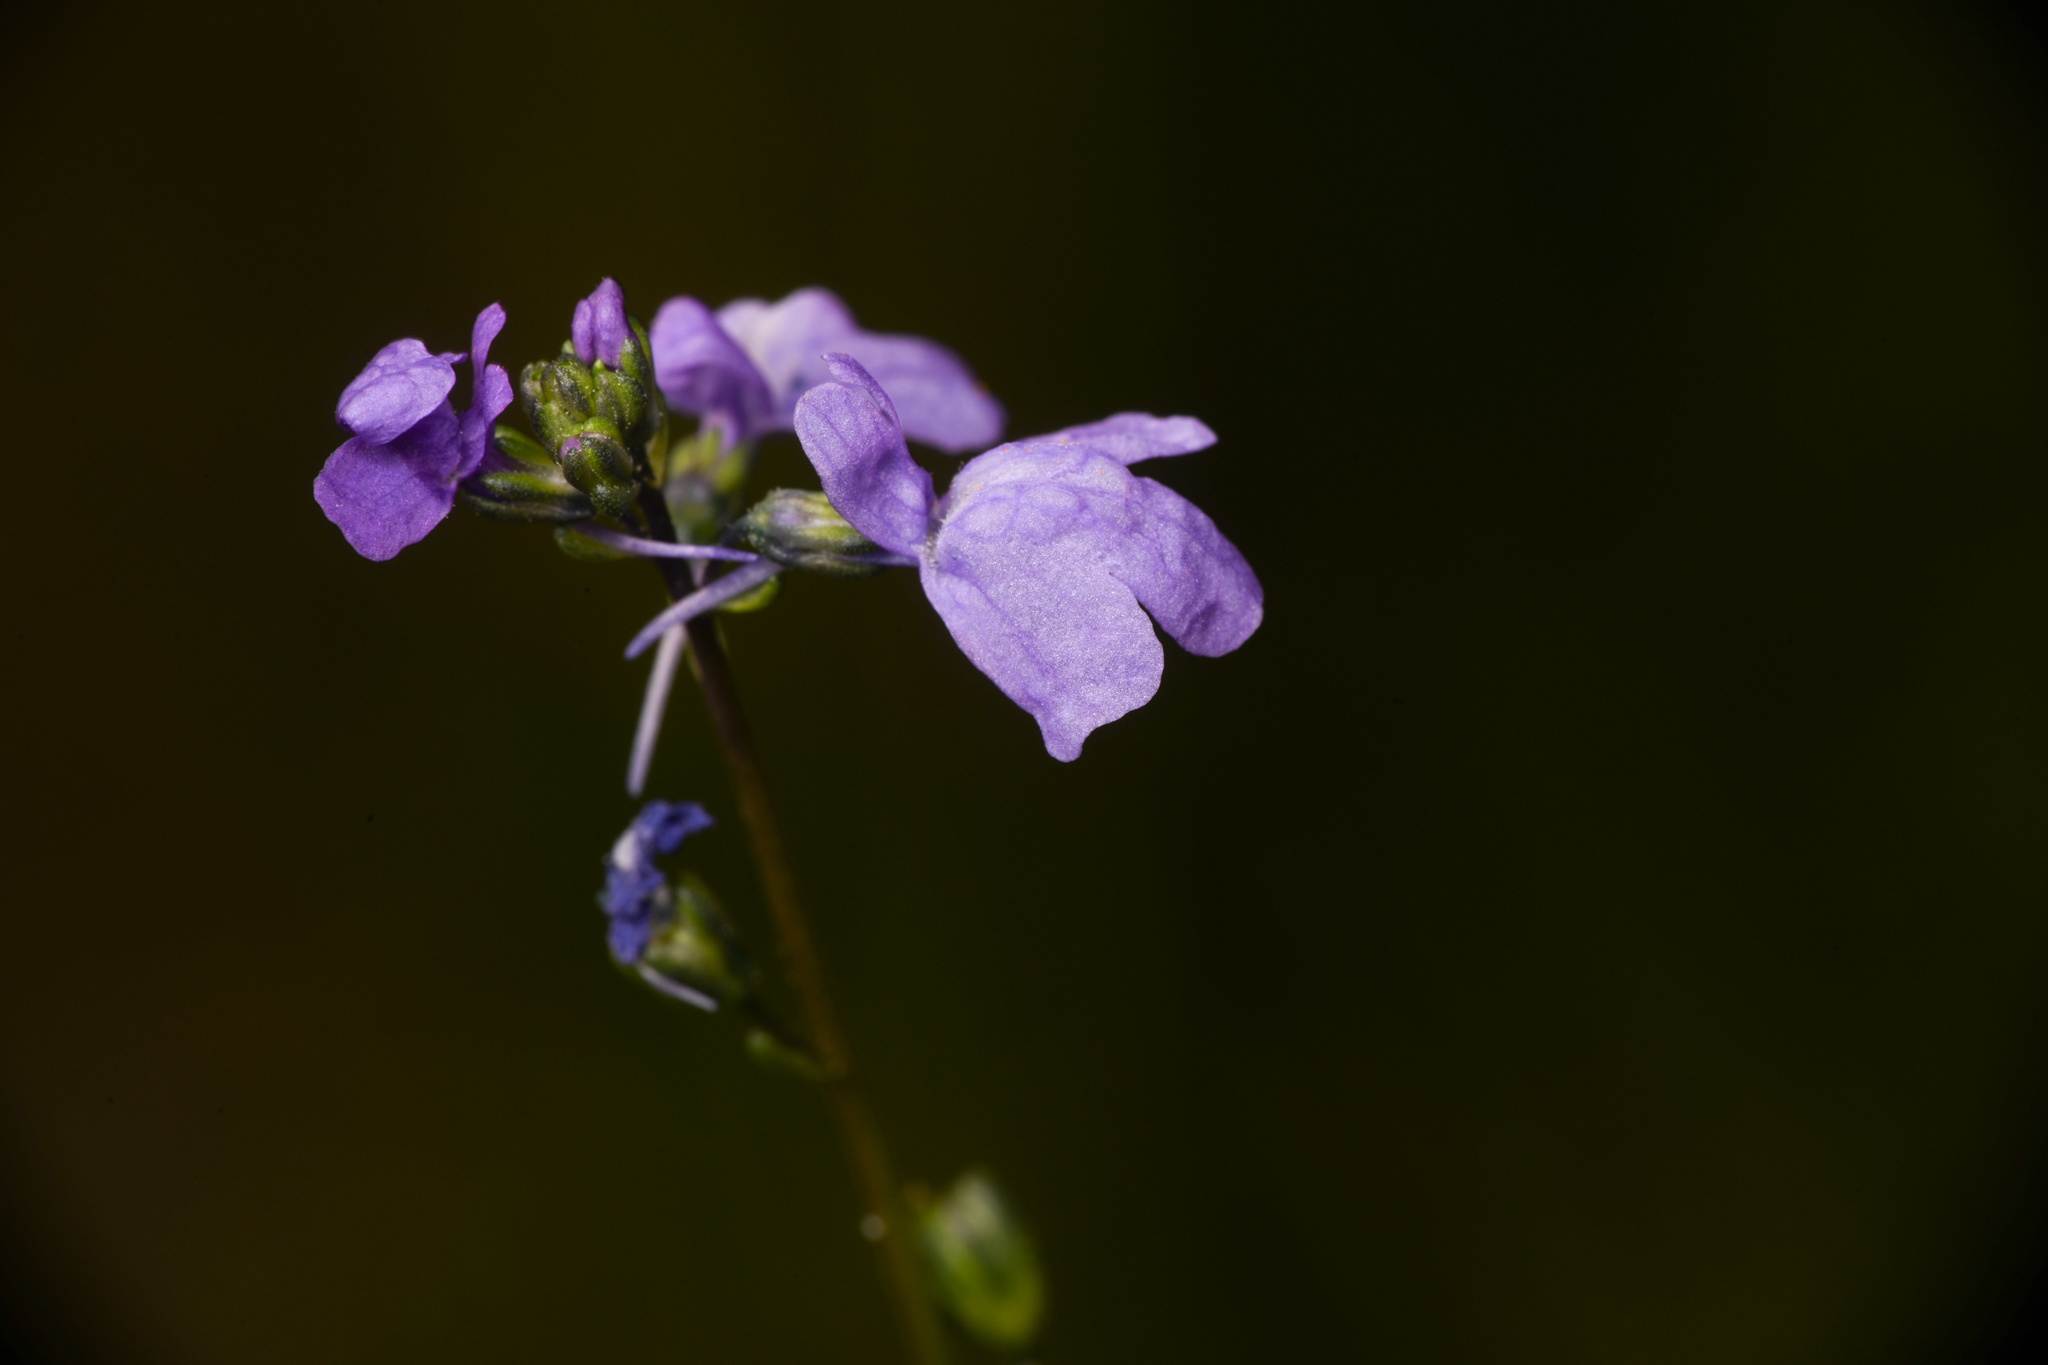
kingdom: Plantae
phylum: Tracheophyta
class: Magnoliopsida
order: Lamiales
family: Plantaginaceae
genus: Nuttallanthus
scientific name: Nuttallanthus texanus
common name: Texas toadflax
